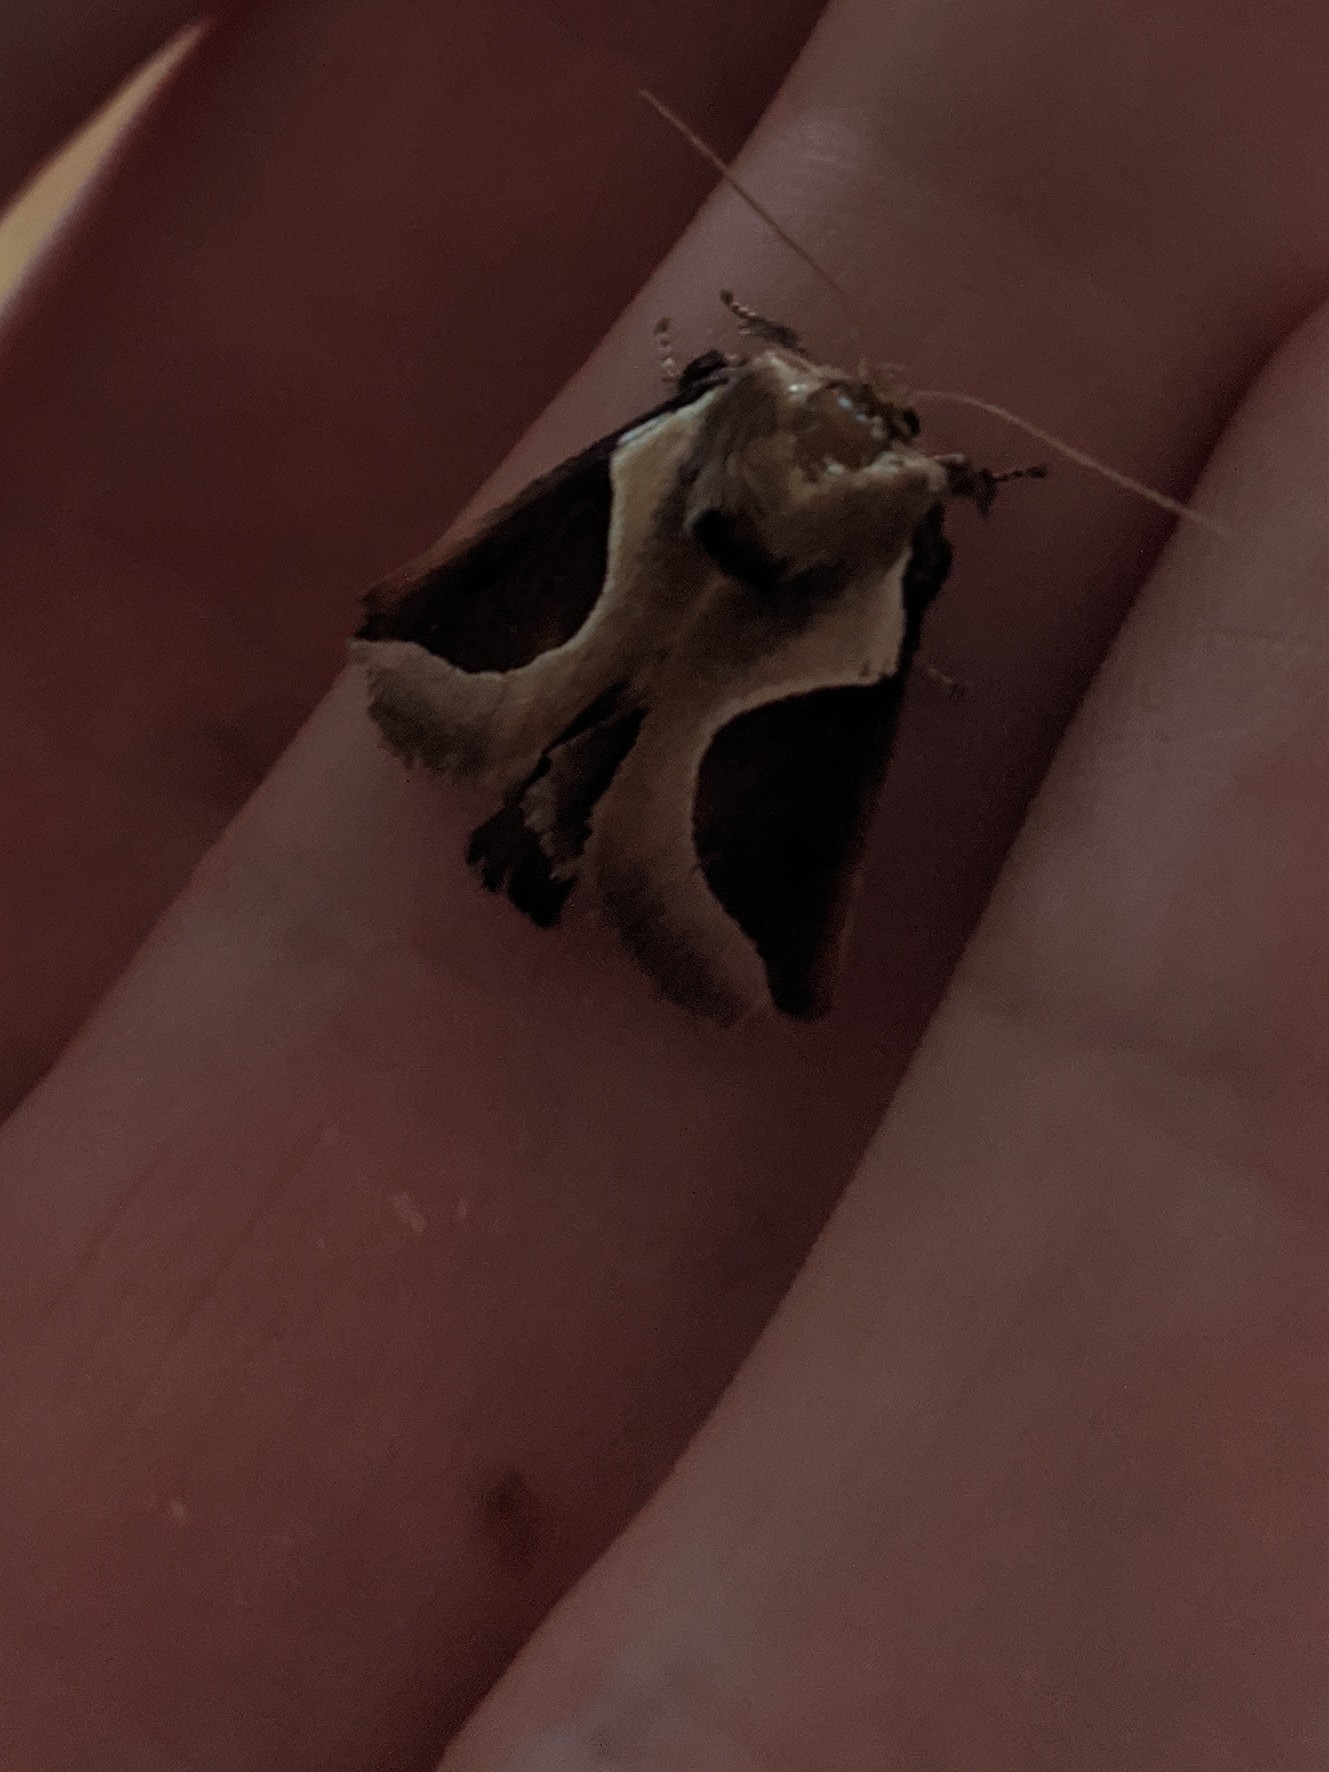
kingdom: Animalia
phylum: Arthropoda
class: Insecta
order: Lepidoptera
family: Limacodidae
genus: Prolimacodes
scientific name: Prolimacodes badia
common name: Skiff moth
